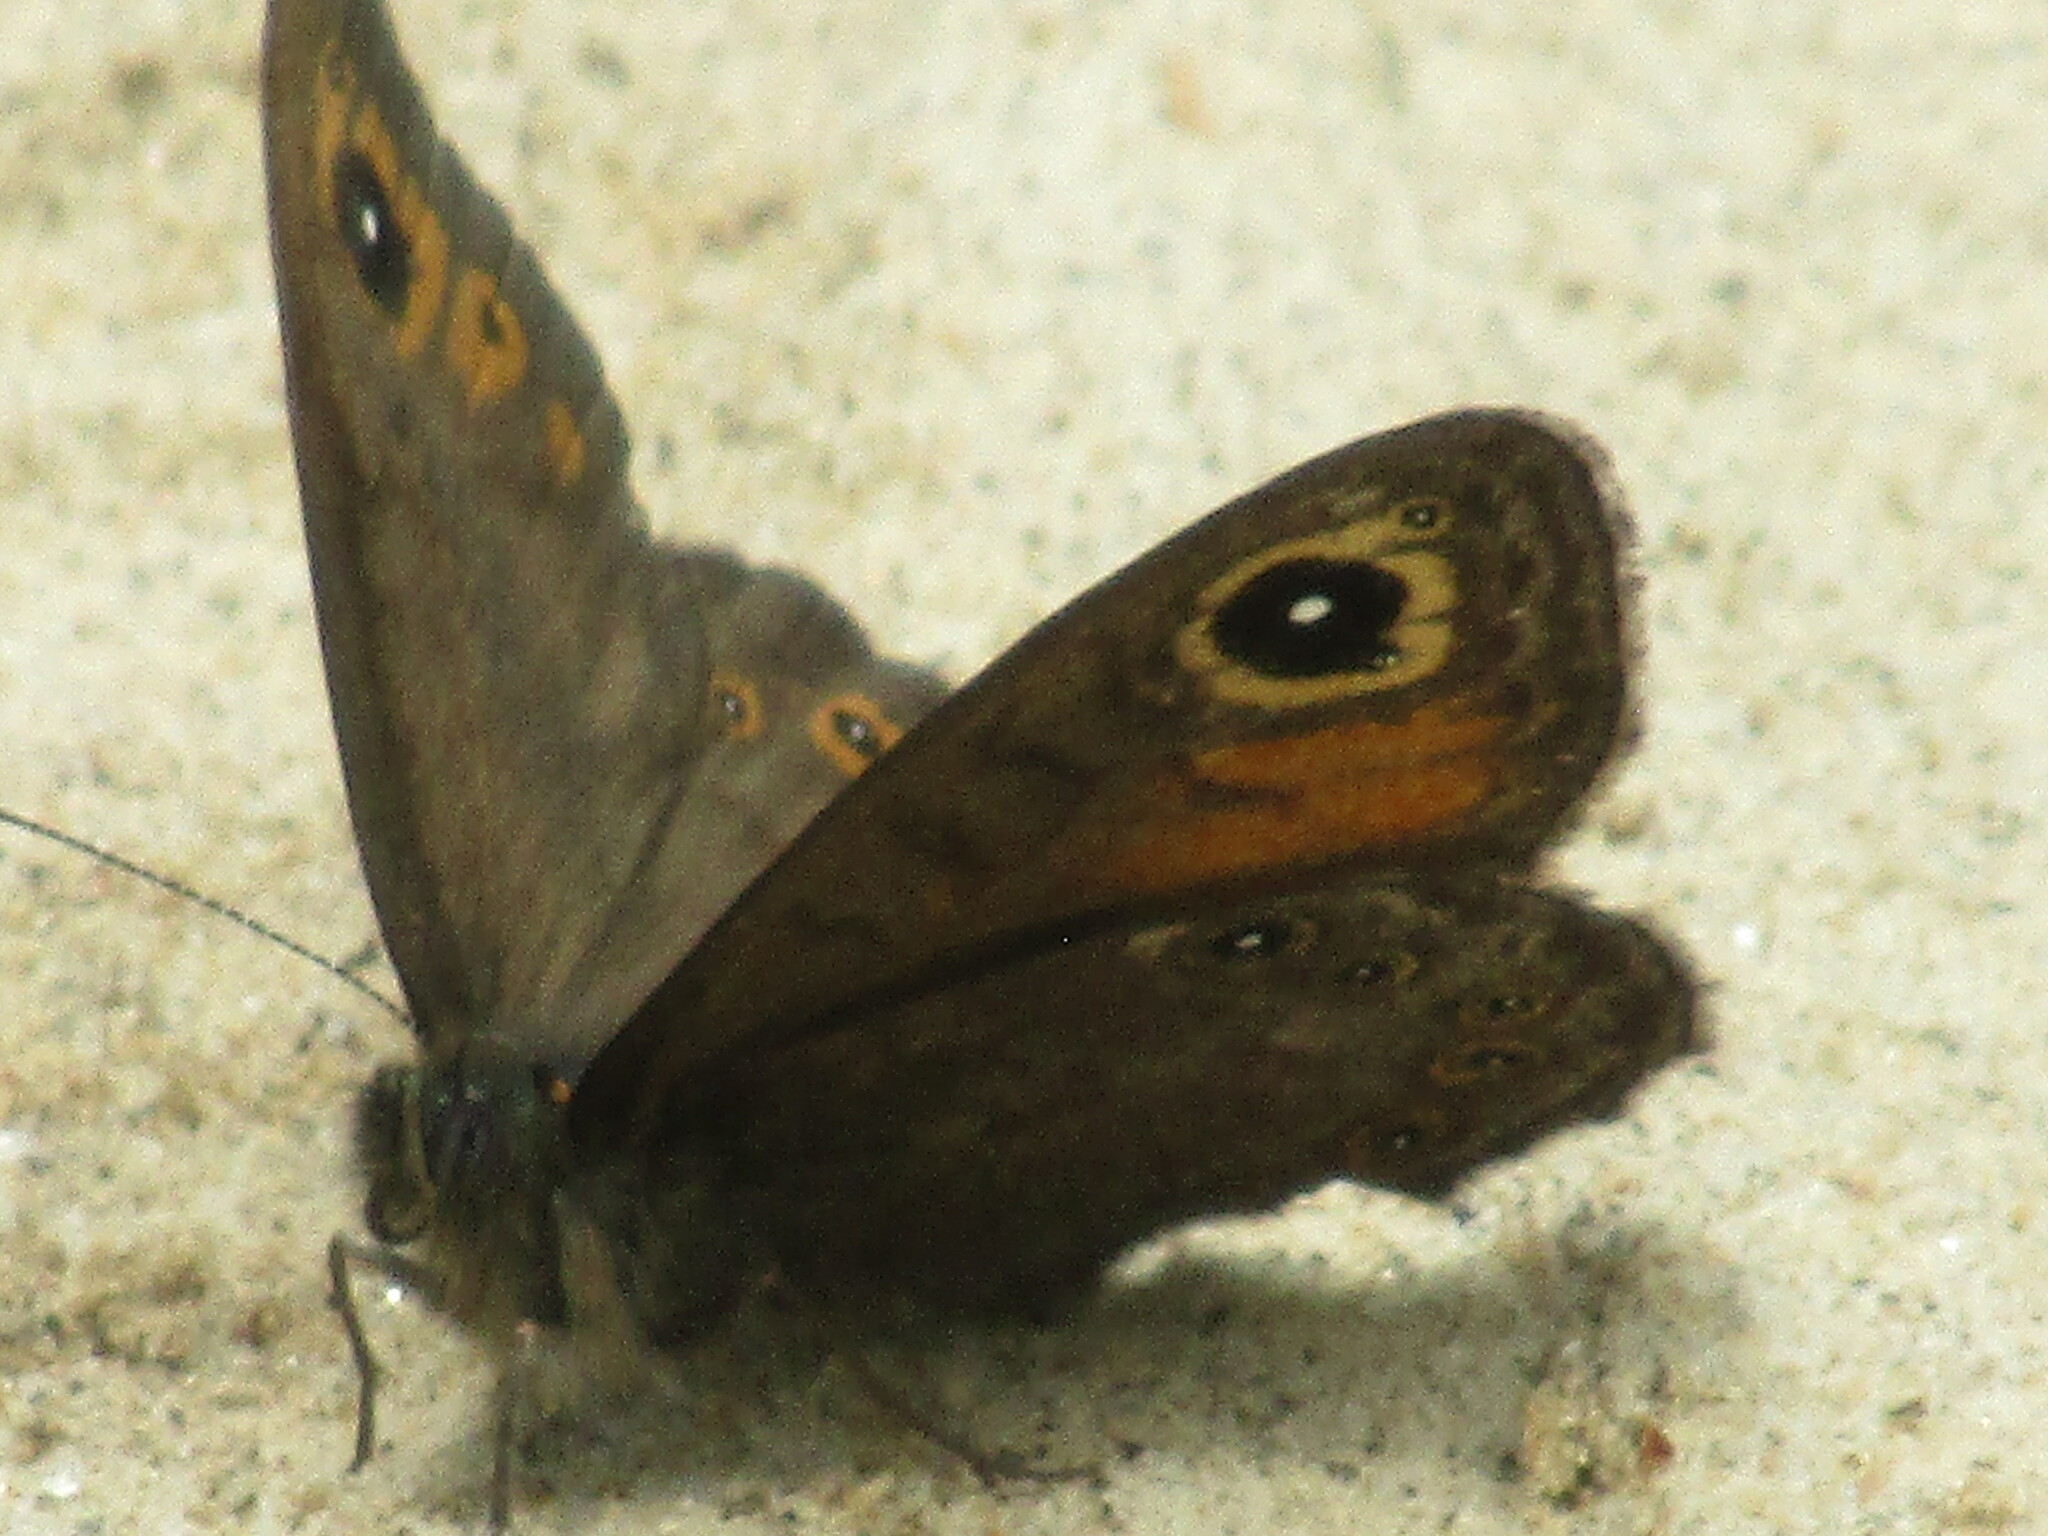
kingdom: Animalia
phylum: Arthropoda
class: Insecta
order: Lepidoptera
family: Nymphalidae
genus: Pararge
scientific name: Pararge petropolitana
